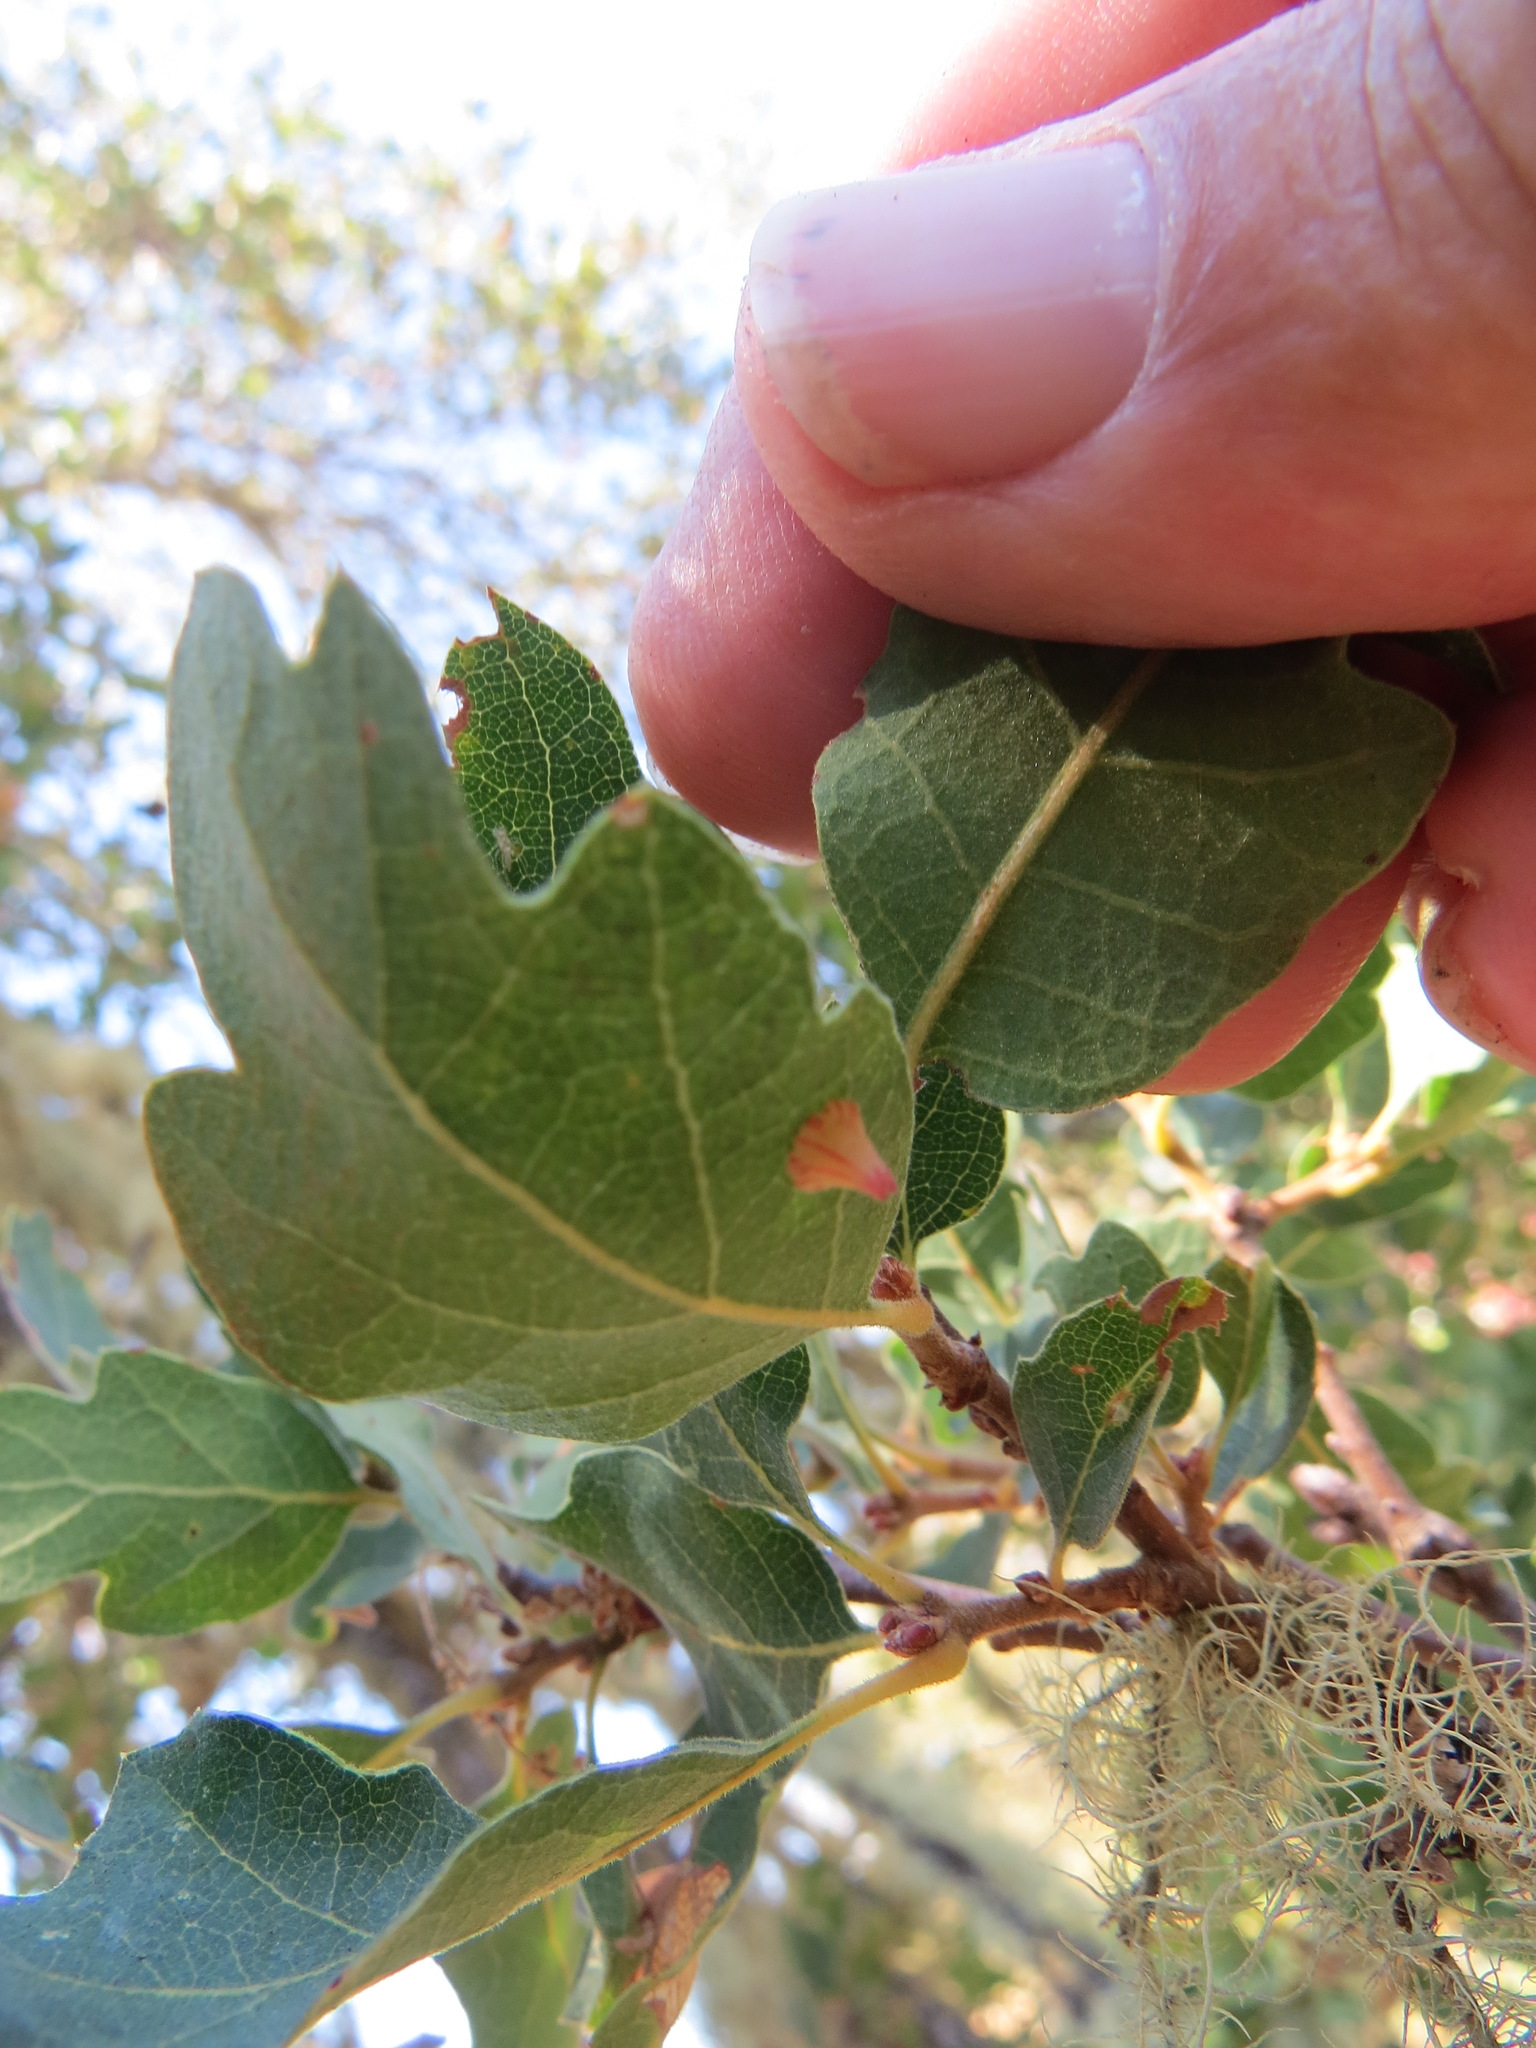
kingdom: Animalia
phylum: Arthropoda
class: Insecta
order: Hymenoptera
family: Cynipidae
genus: Andricus
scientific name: Andricus
